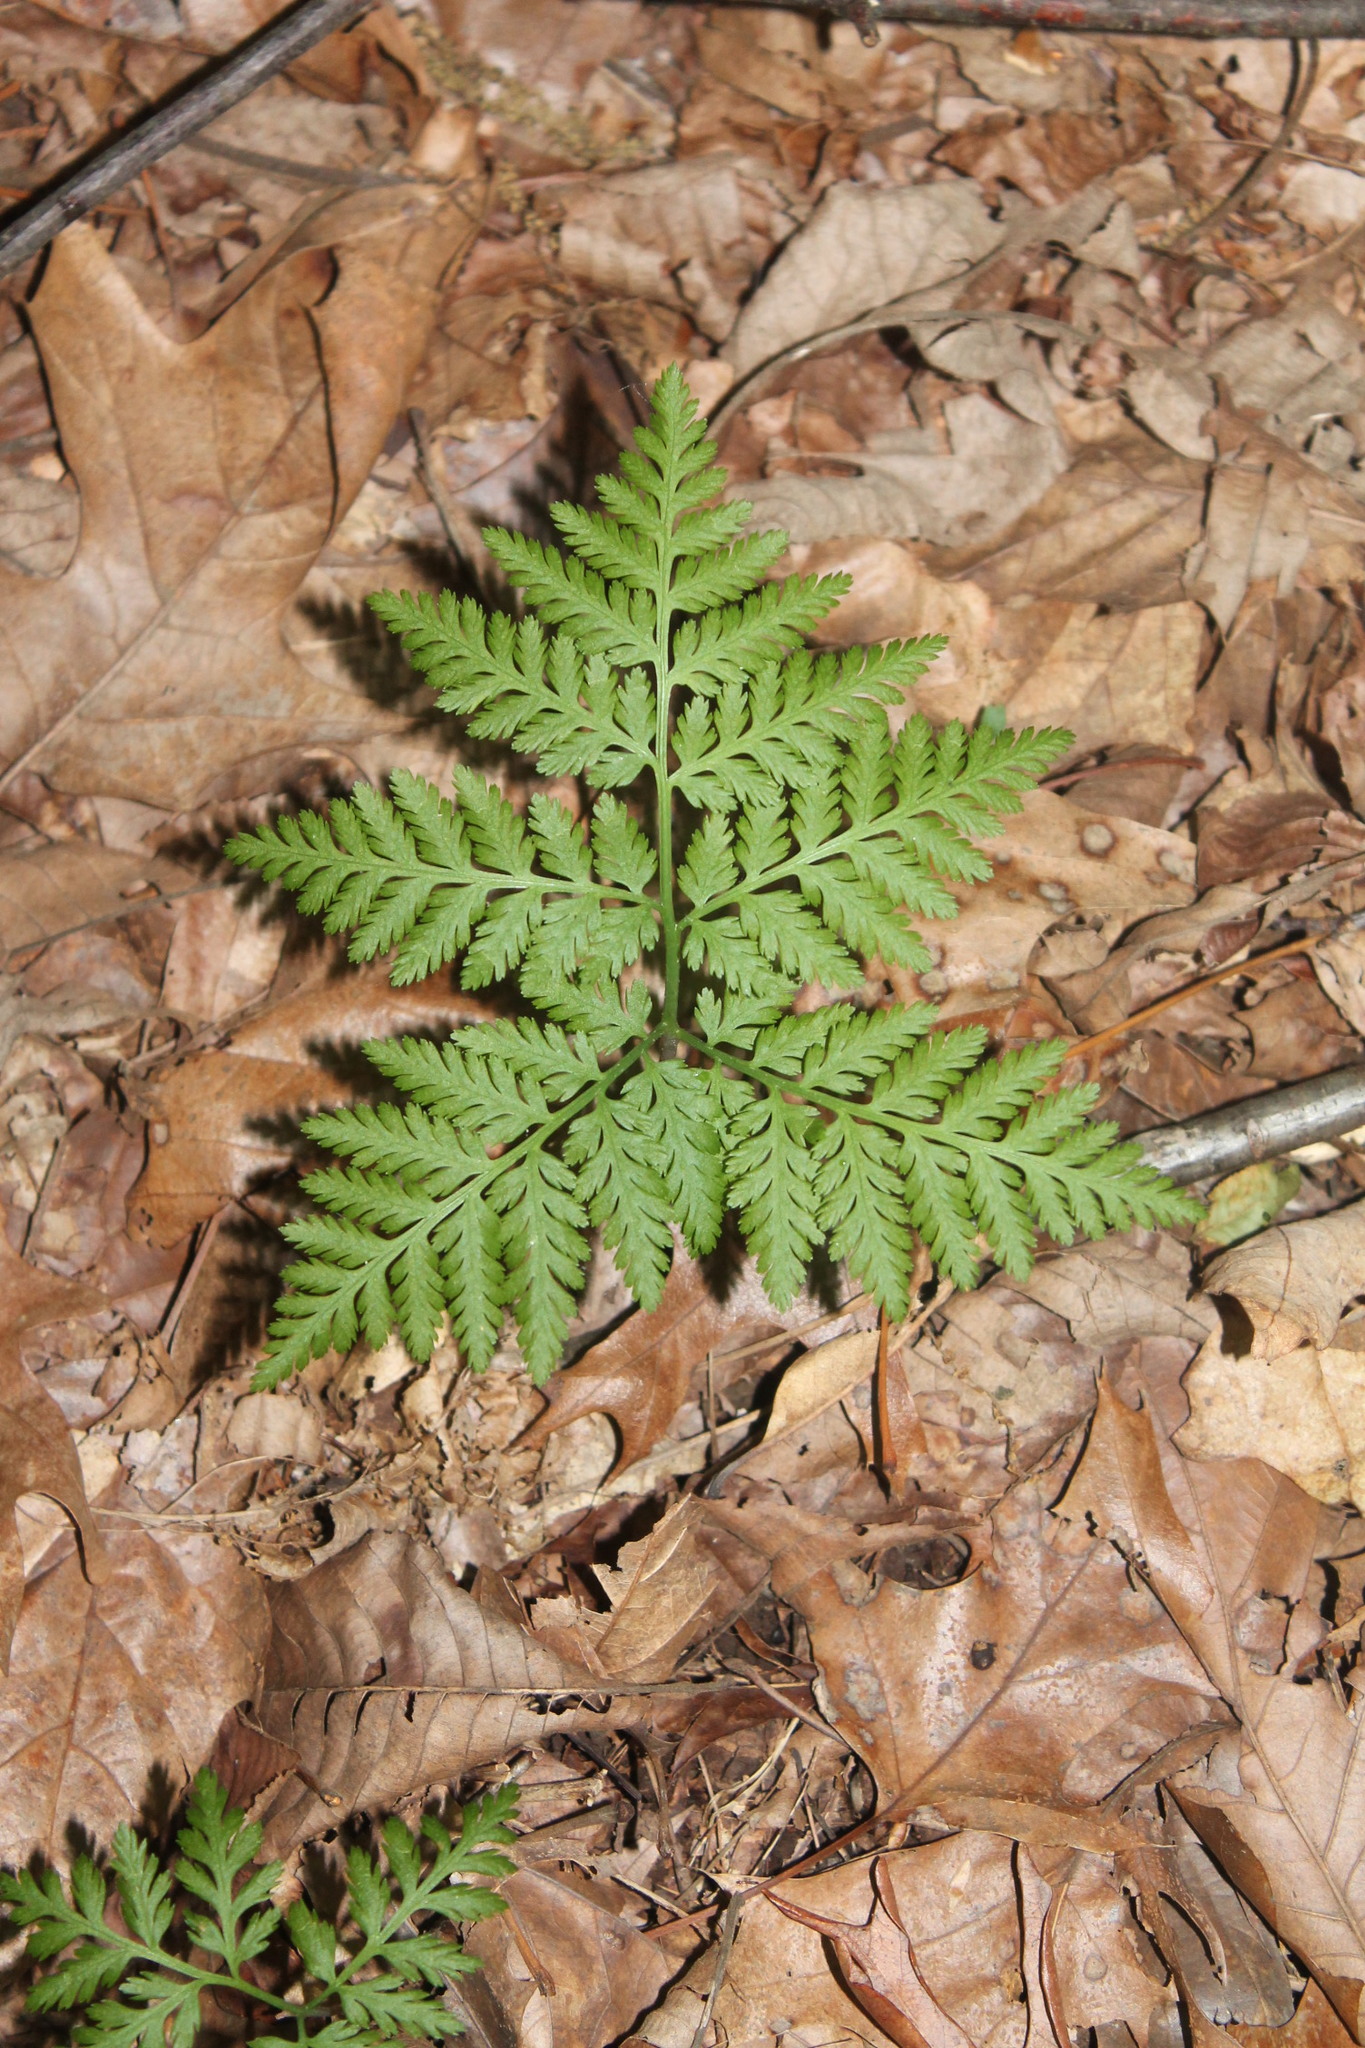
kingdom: Plantae
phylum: Tracheophyta
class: Polypodiopsida
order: Ophioglossales
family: Ophioglossaceae
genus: Botrypus
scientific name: Botrypus virginianus
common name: Common grapefern
